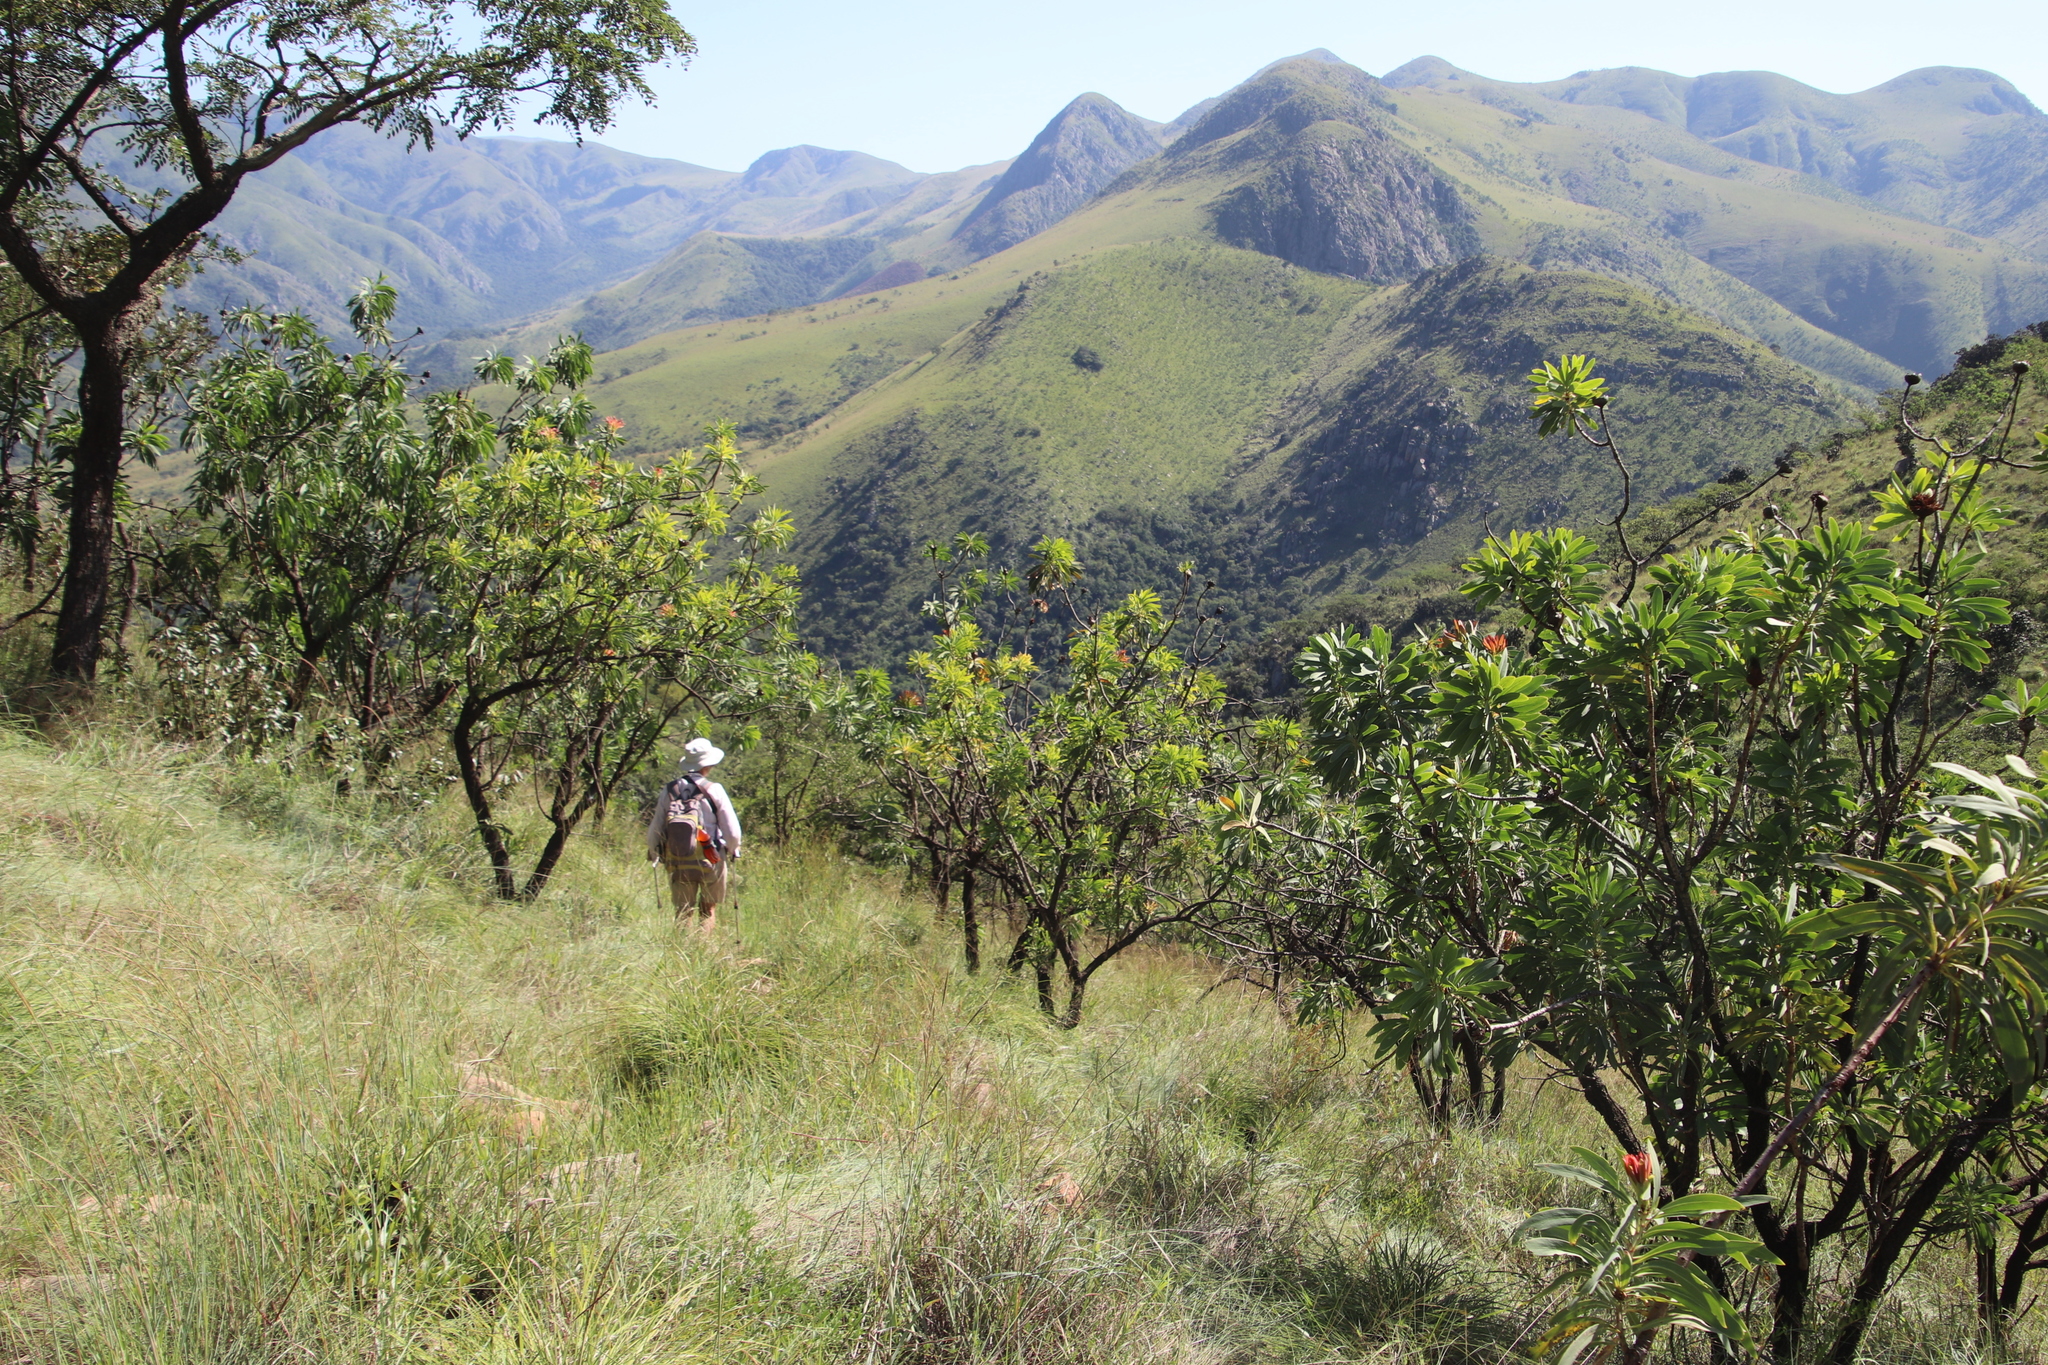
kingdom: Plantae
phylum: Tracheophyta
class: Magnoliopsida
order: Proteales
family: Proteaceae
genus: Protea
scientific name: Protea caffra
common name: Common sugarbush
